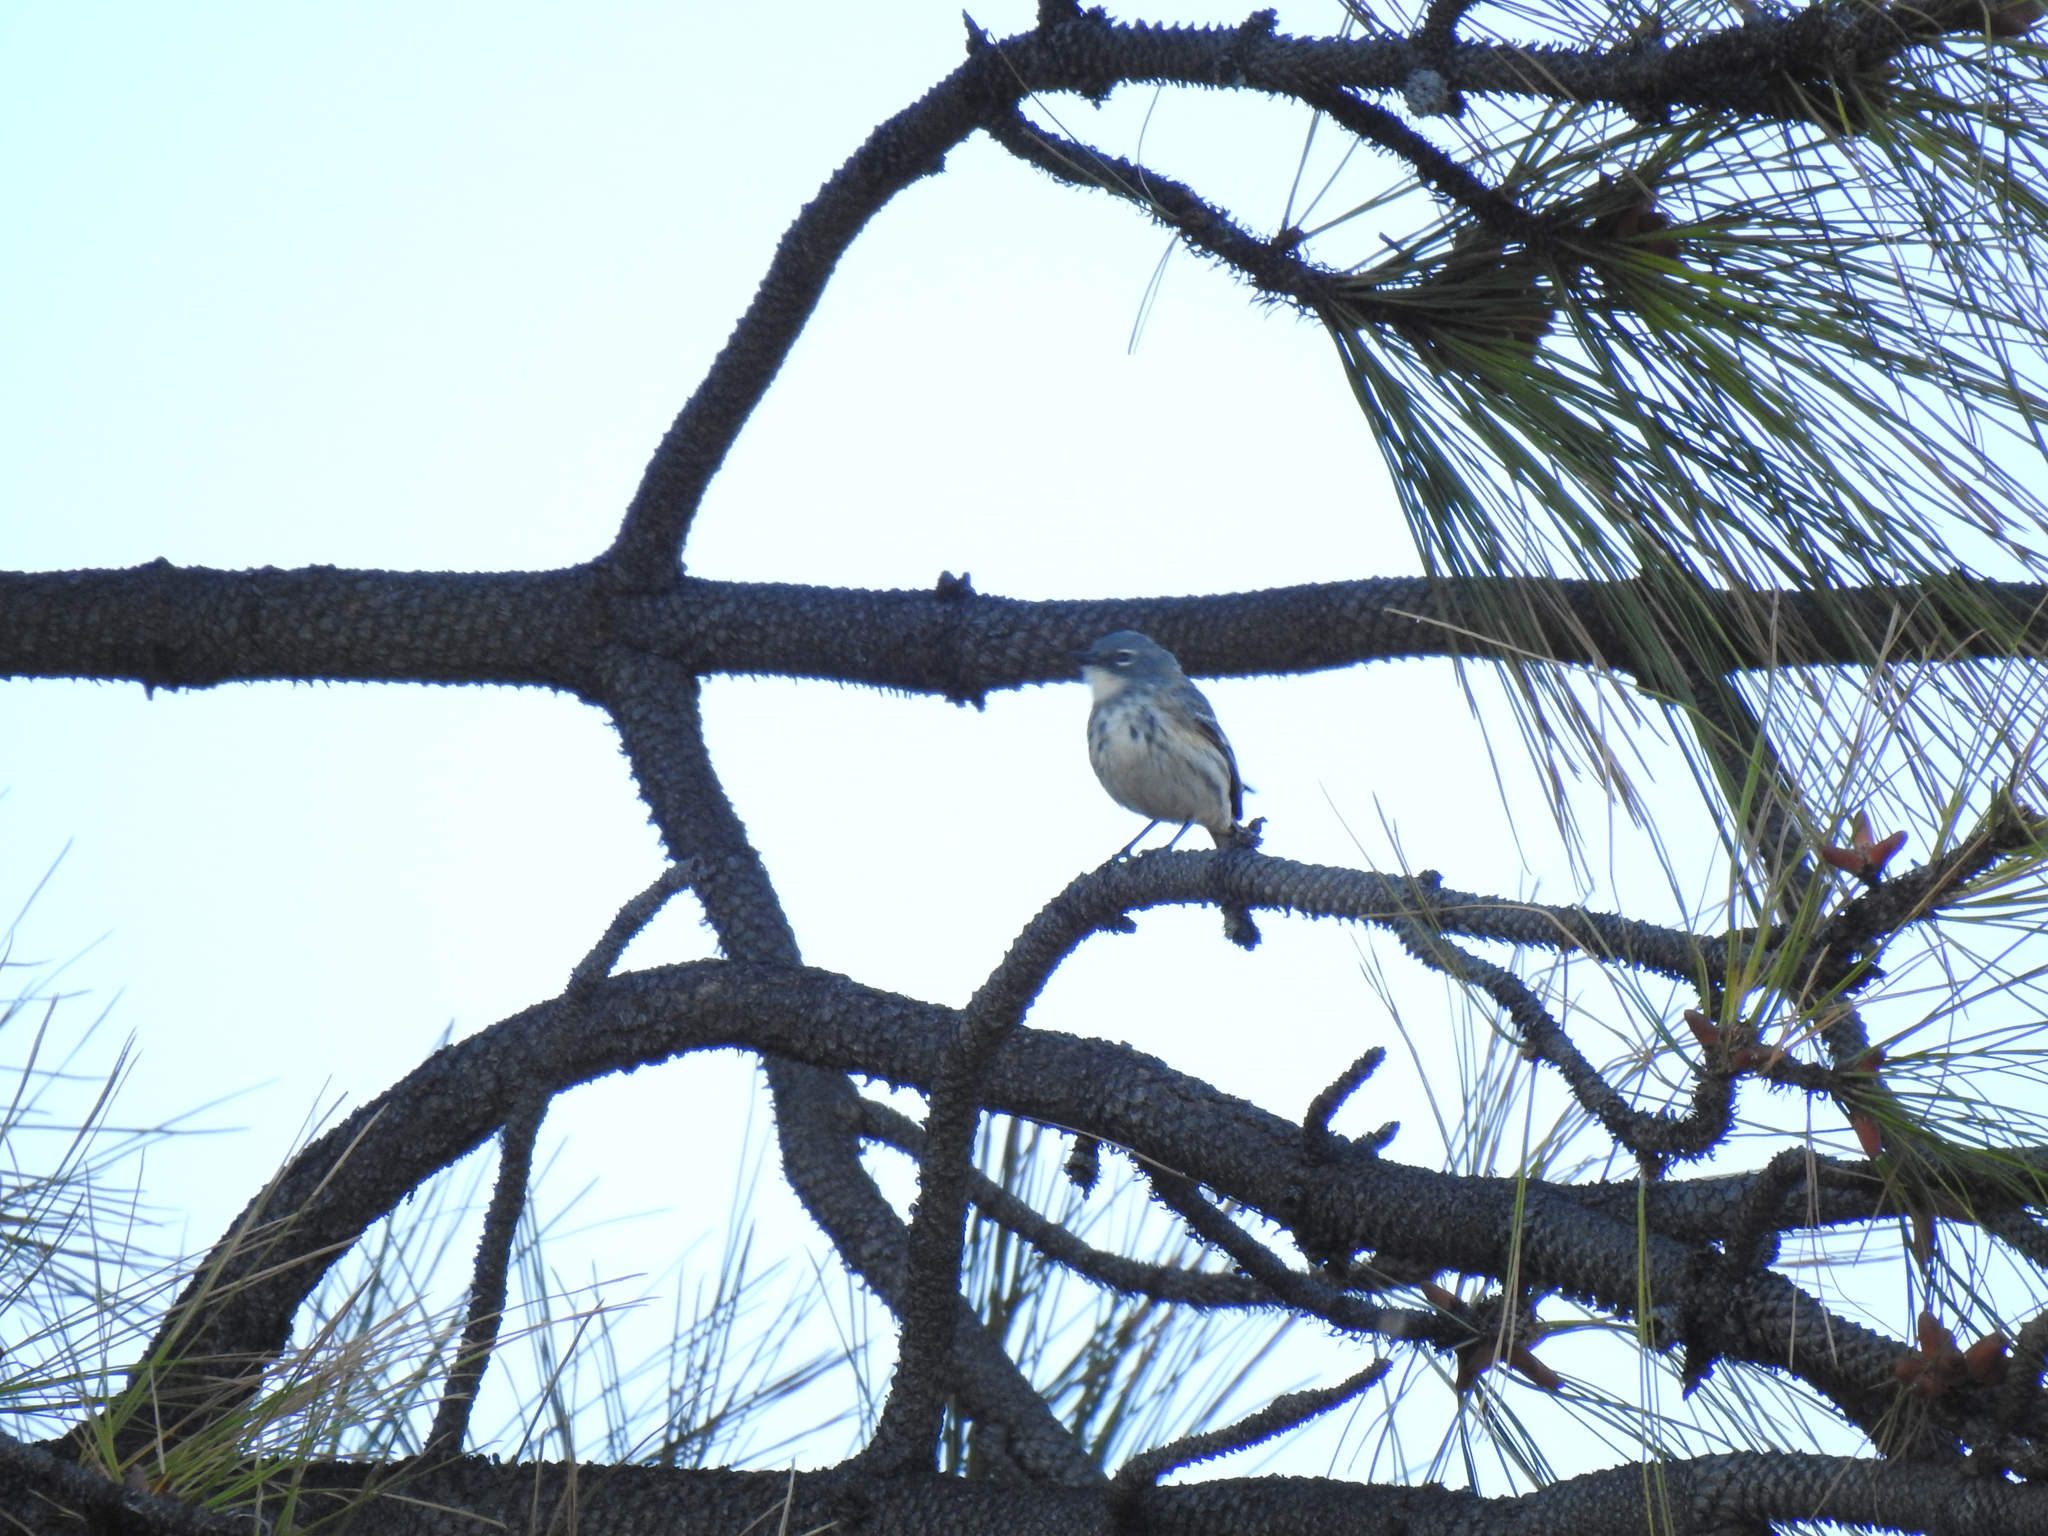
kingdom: Animalia
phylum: Chordata
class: Aves
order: Passeriformes
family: Parulidae
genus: Setophaga
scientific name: Setophaga coronata
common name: Myrtle warbler
